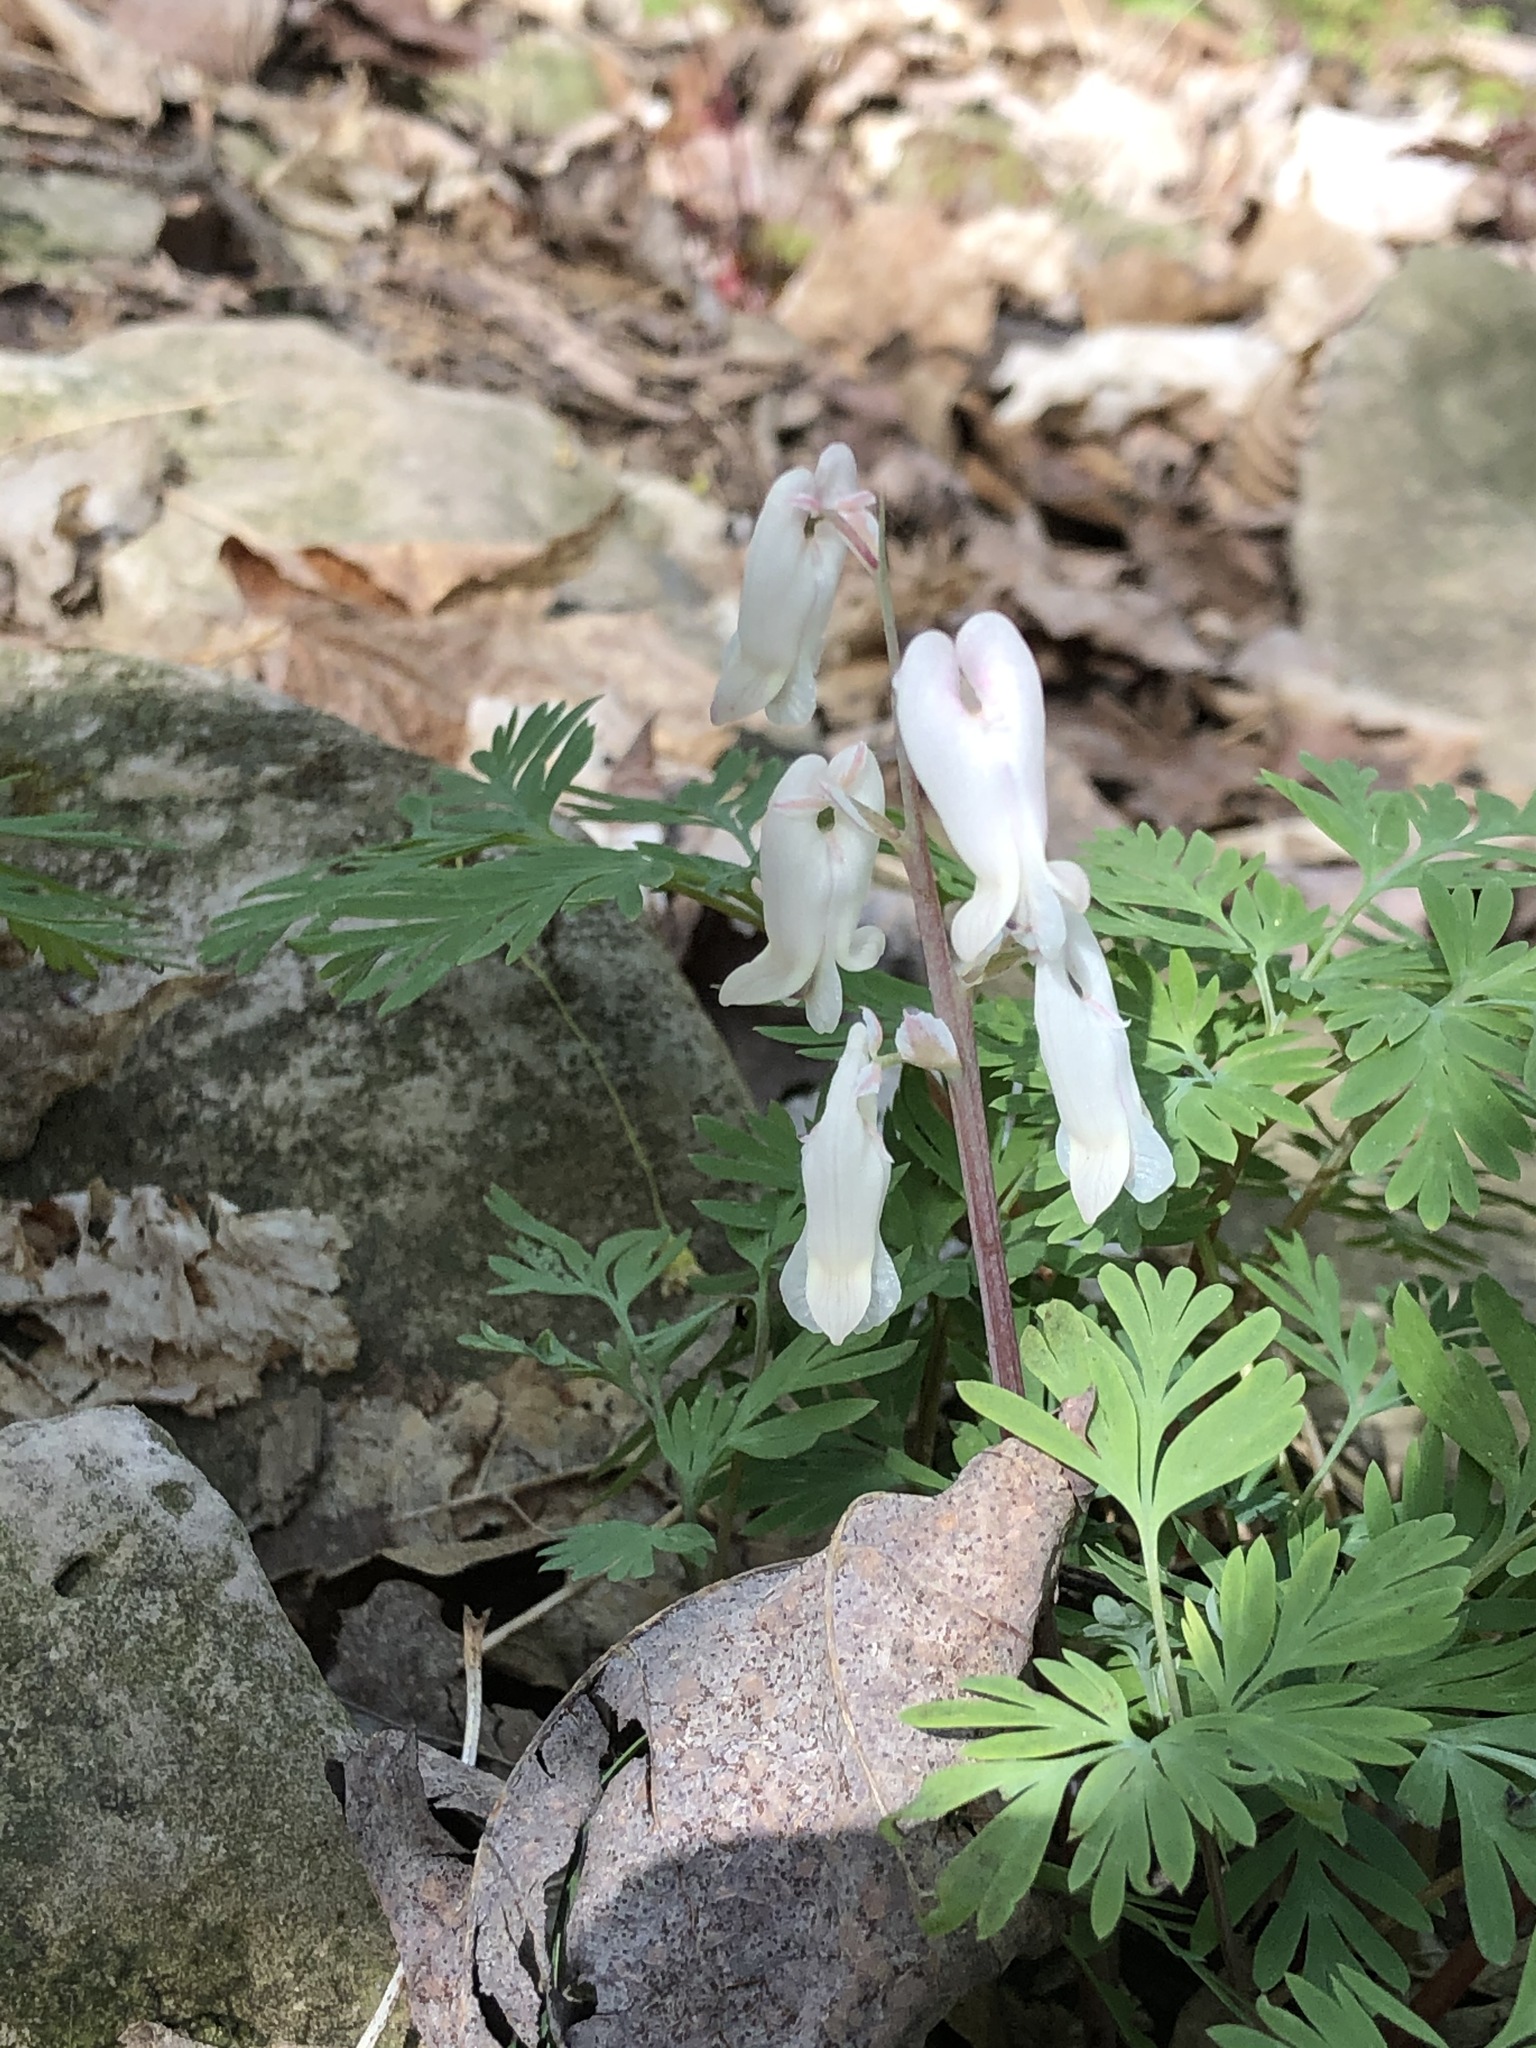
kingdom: Plantae
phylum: Tracheophyta
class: Magnoliopsida
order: Ranunculales
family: Papaveraceae
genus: Dicentra
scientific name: Dicentra canadensis
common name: Squirrel-corn
